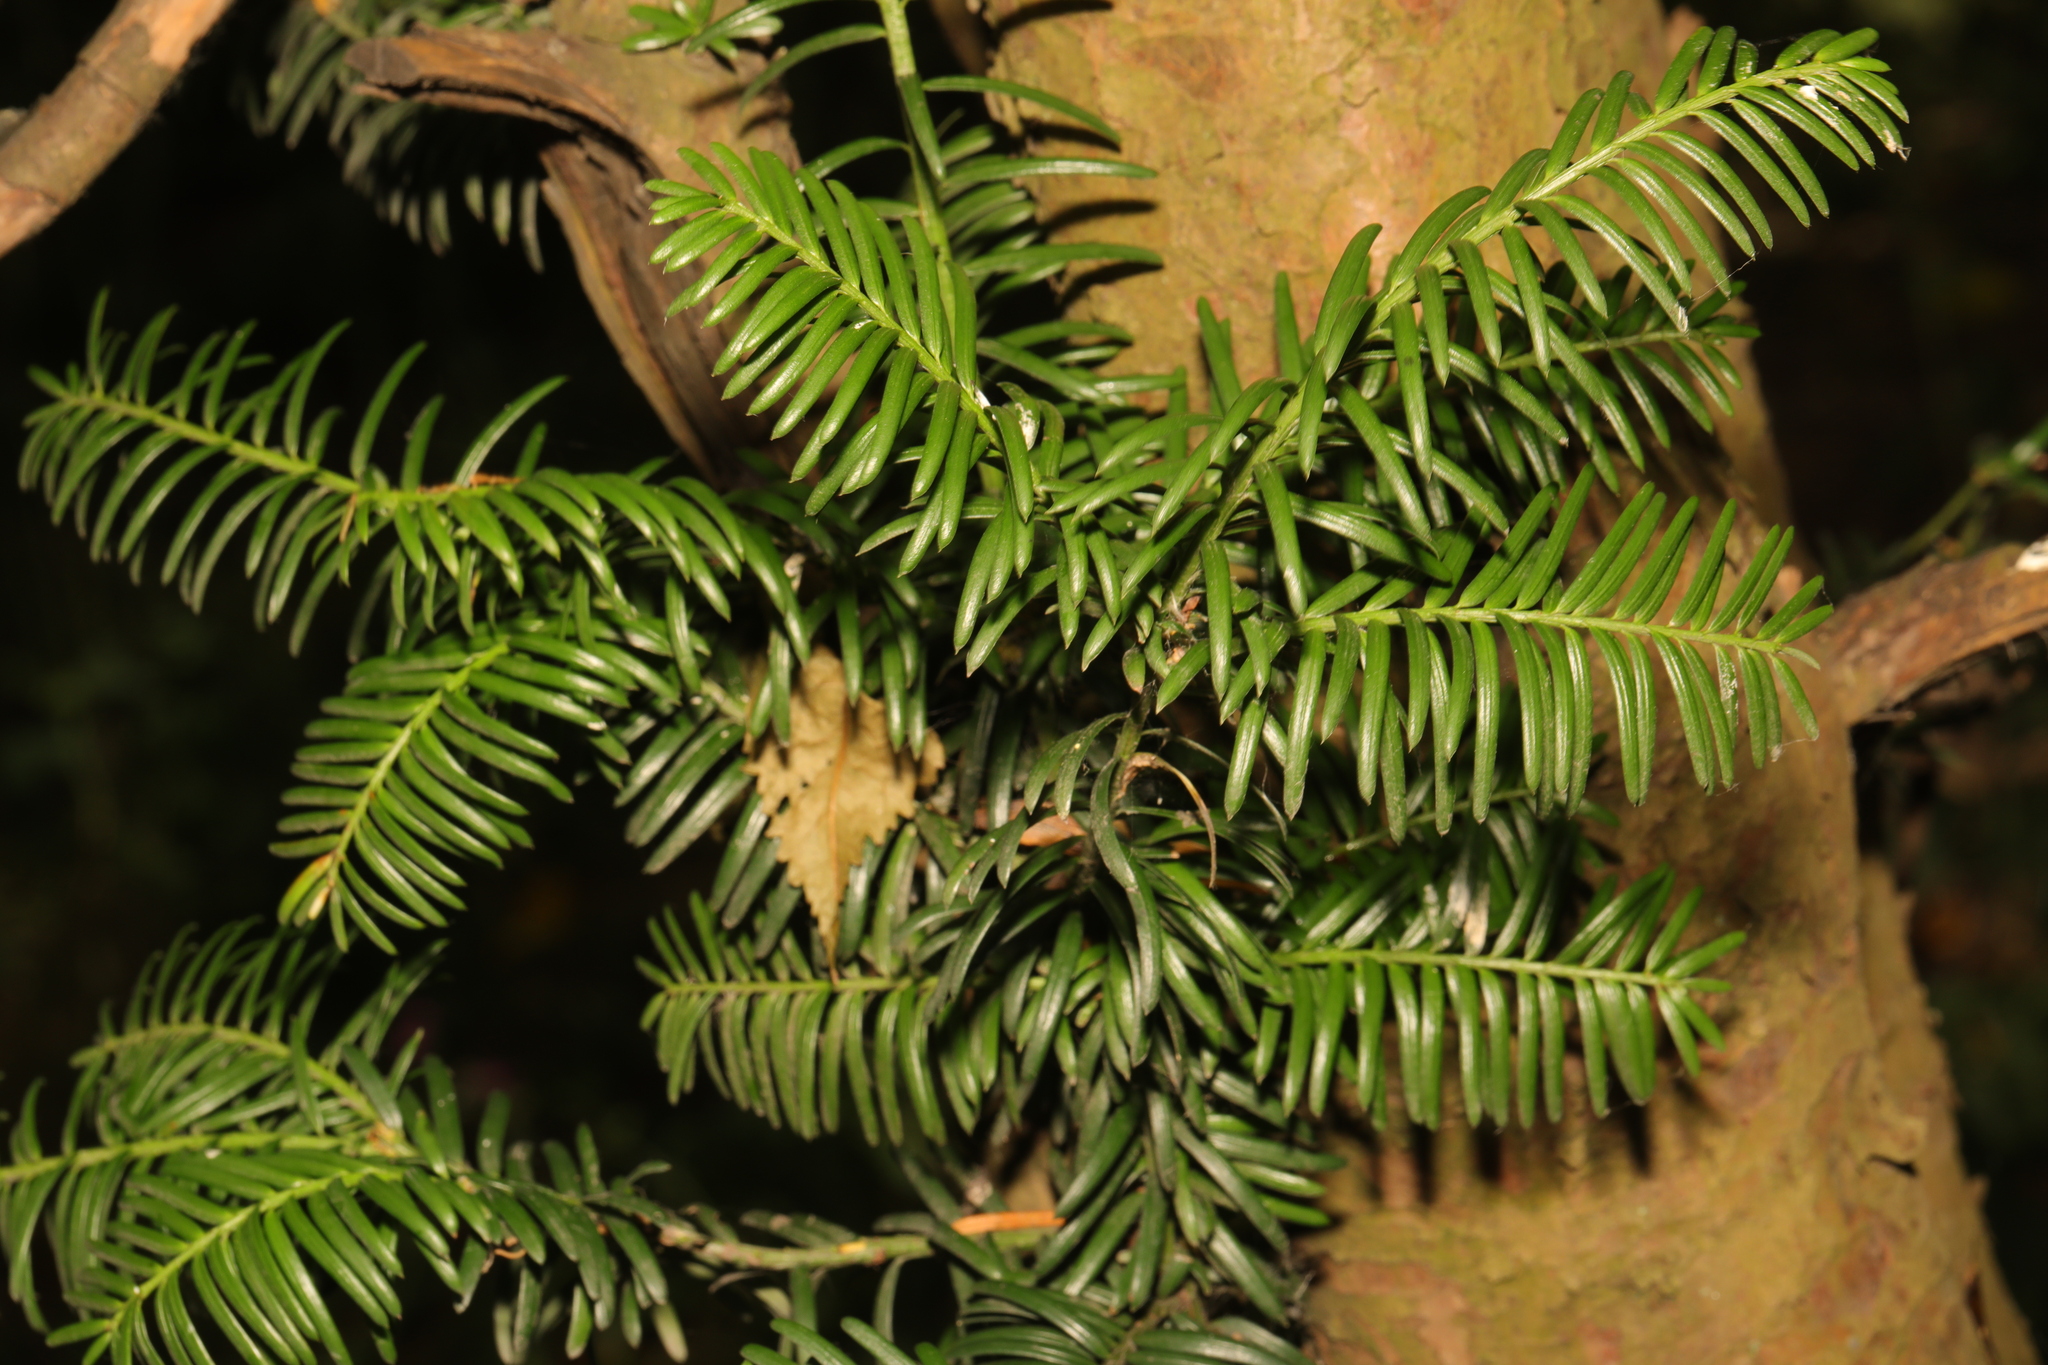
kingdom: Plantae
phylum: Tracheophyta
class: Pinopsida
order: Pinales
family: Taxaceae
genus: Taxus
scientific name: Taxus baccata
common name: Yew
